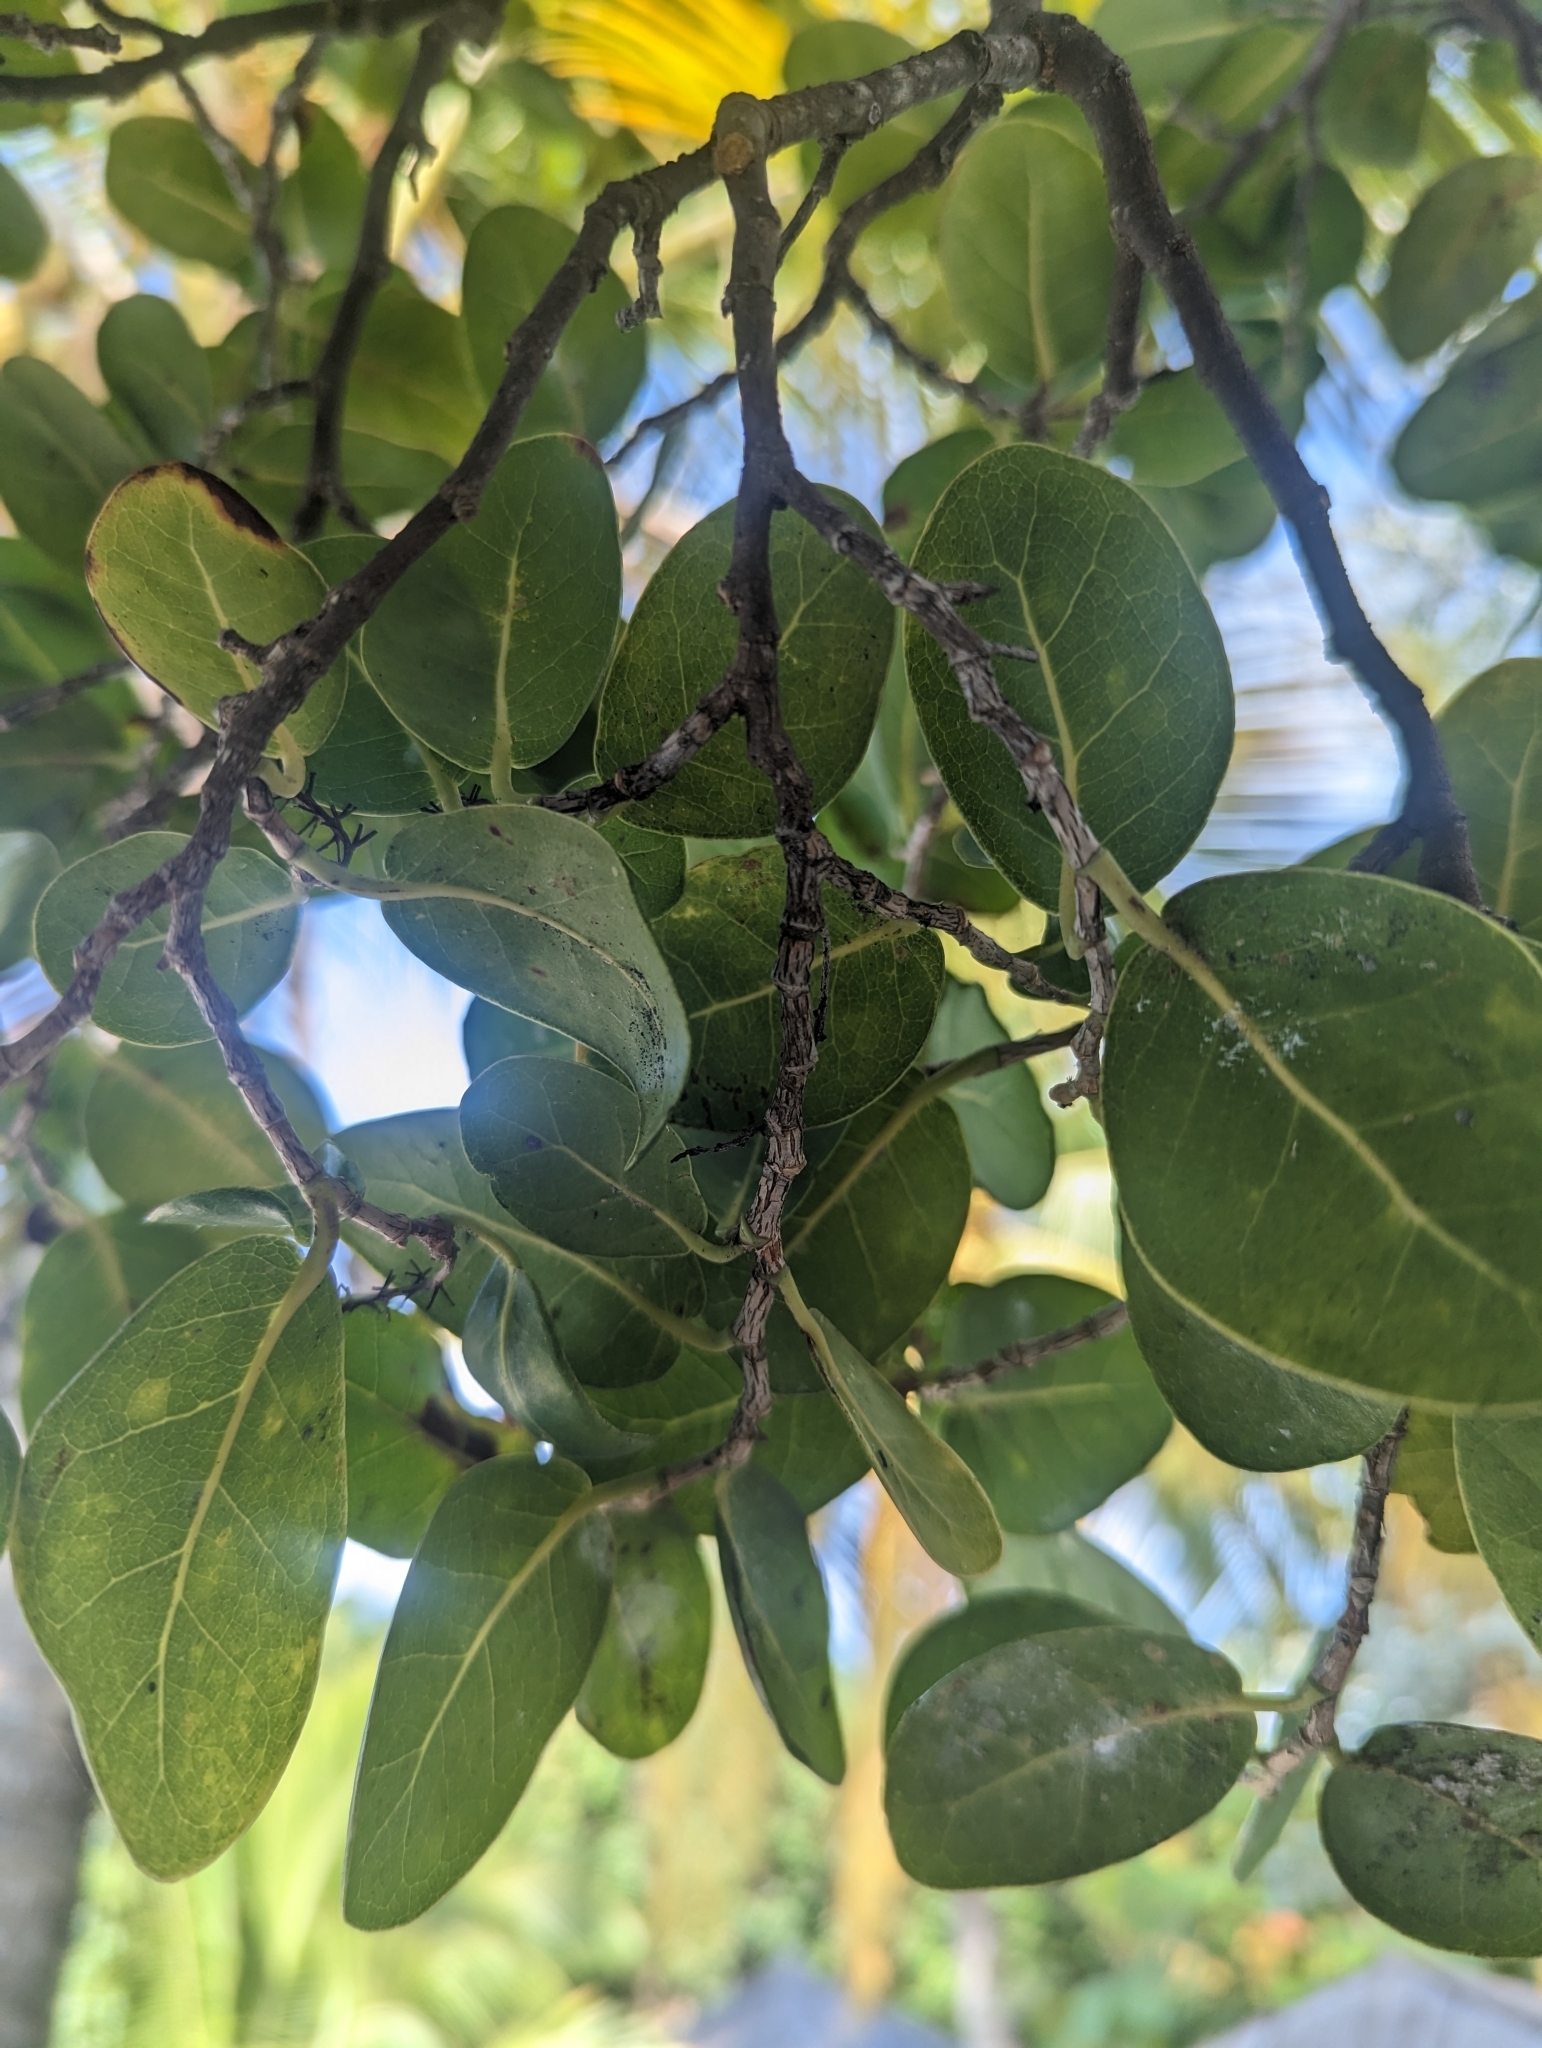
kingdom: Plantae
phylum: Tracheophyta
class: Magnoliopsida
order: Caryophyllales
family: Polygonaceae
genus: Coccoloba
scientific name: Coccoloba diversifolia
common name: Pigeon-plum
